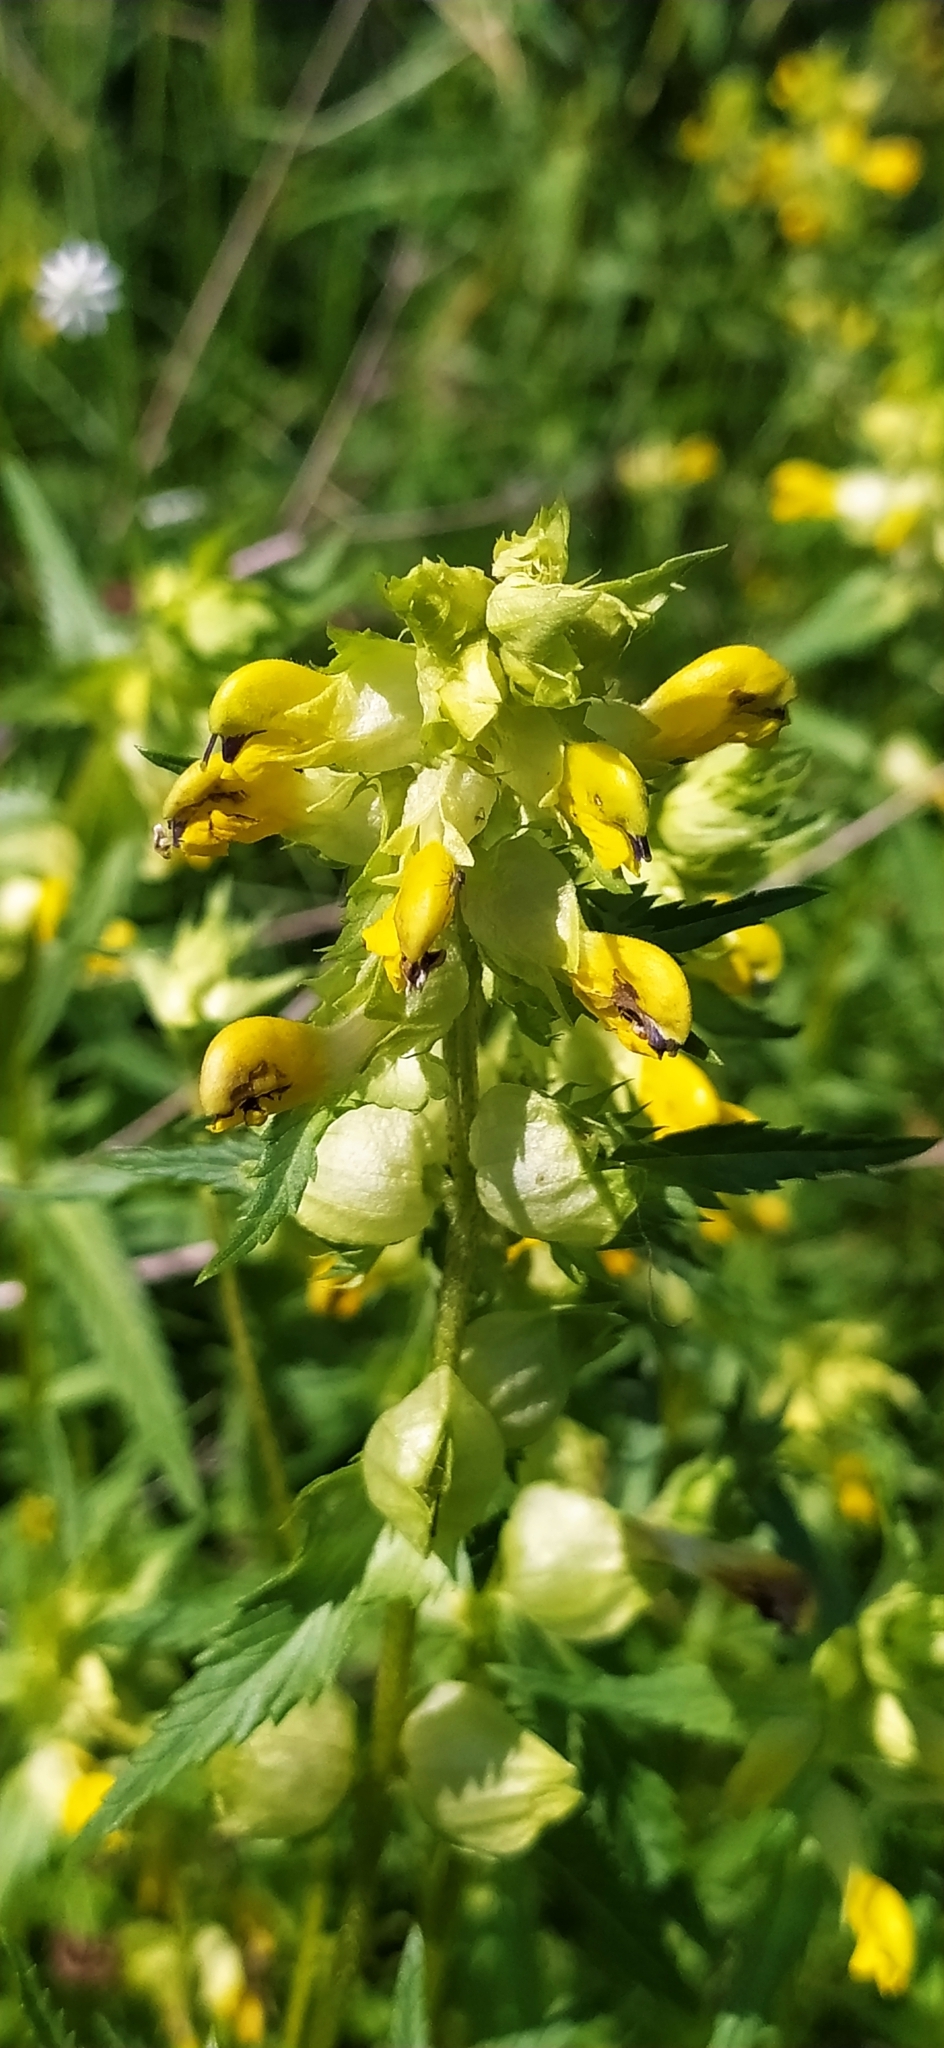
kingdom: Plantae
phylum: Tracheophyta
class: Magnoliopsida
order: Lamiales
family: Orobanchaceae
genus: Rhinanthus
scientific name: Rhinanthus serotinus
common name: Late-flowering yellow rattle
